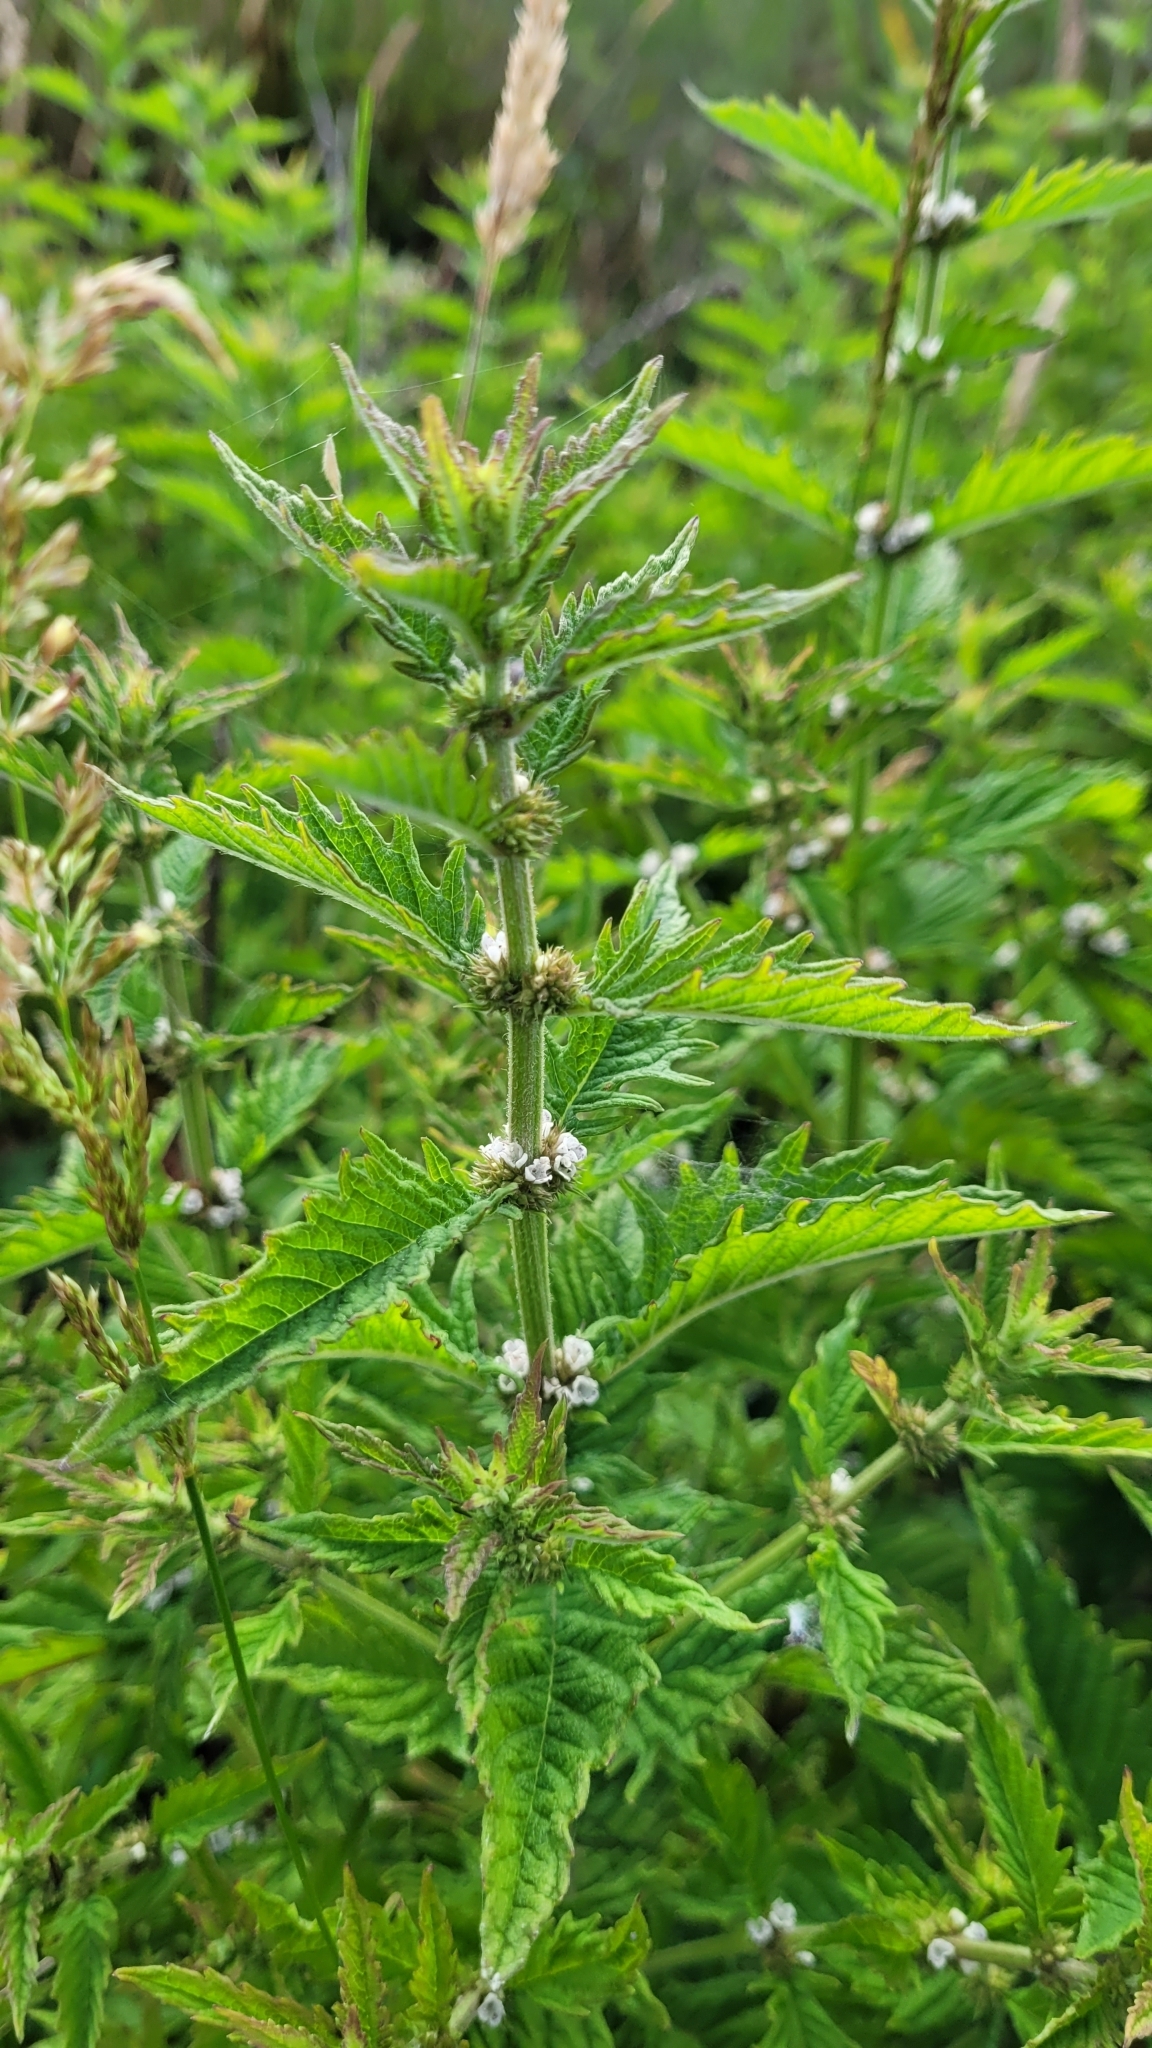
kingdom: Plantae
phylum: Tracheophyta
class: Magnoliopsida
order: Lamiales
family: Lamiaceae
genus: Lycopus
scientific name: Lycopus europaeus
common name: European bugleweed
